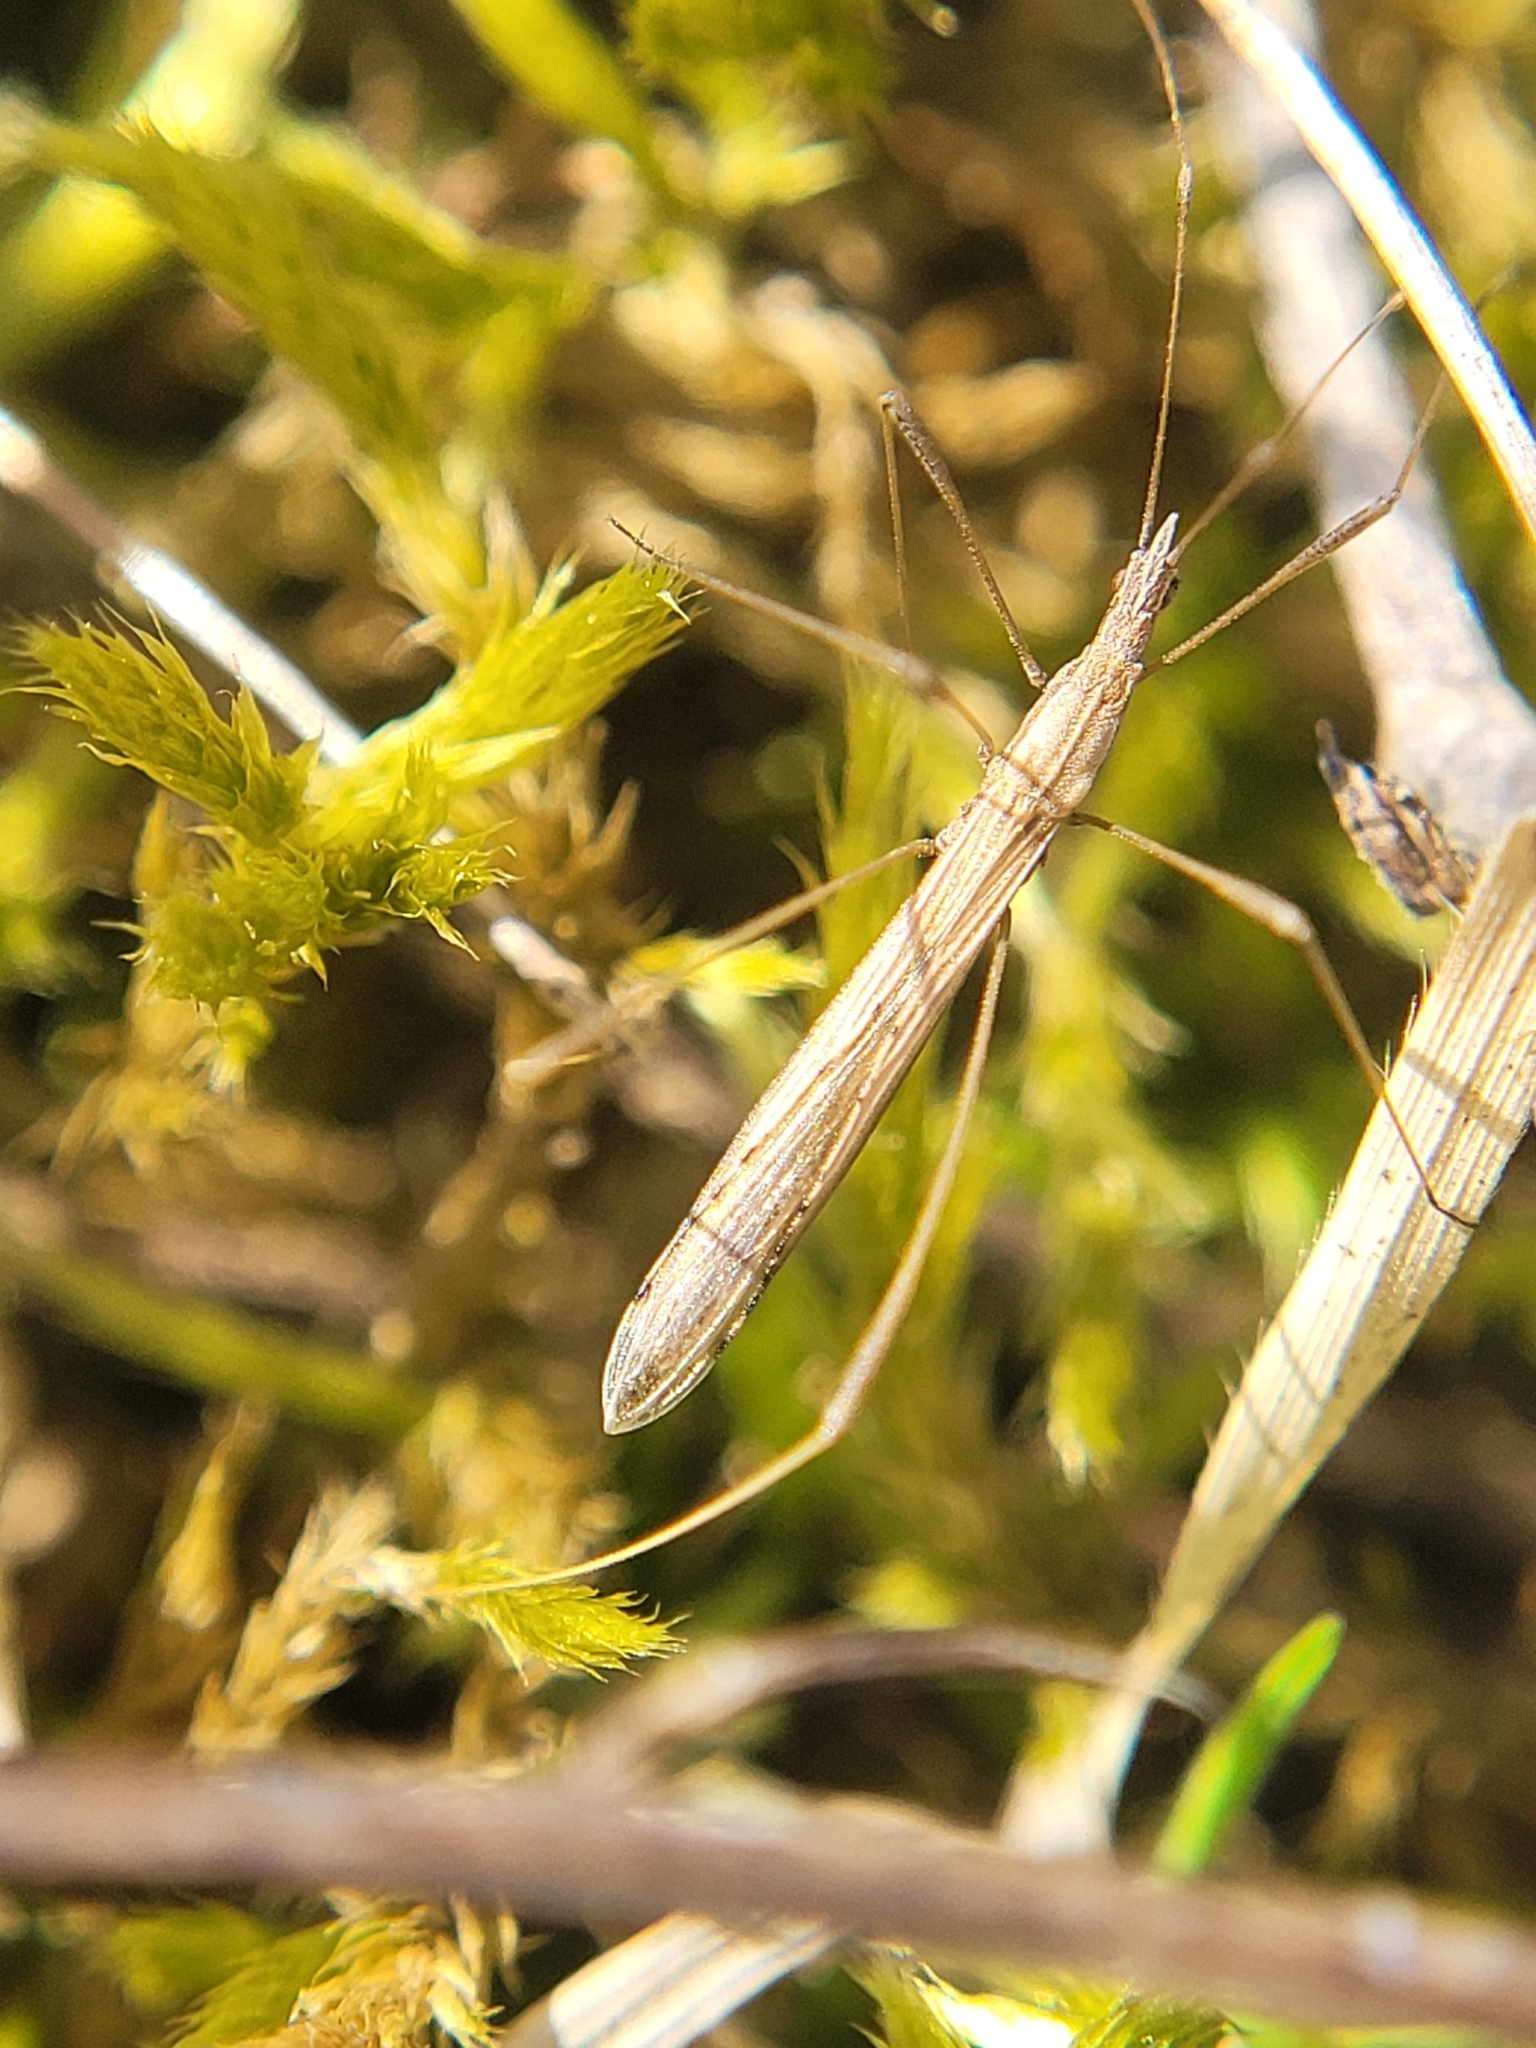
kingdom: Animalia
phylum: Arthropoda
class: Insecta
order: Hemiptera
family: Berytidae
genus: Neides
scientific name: Neides tipularius
